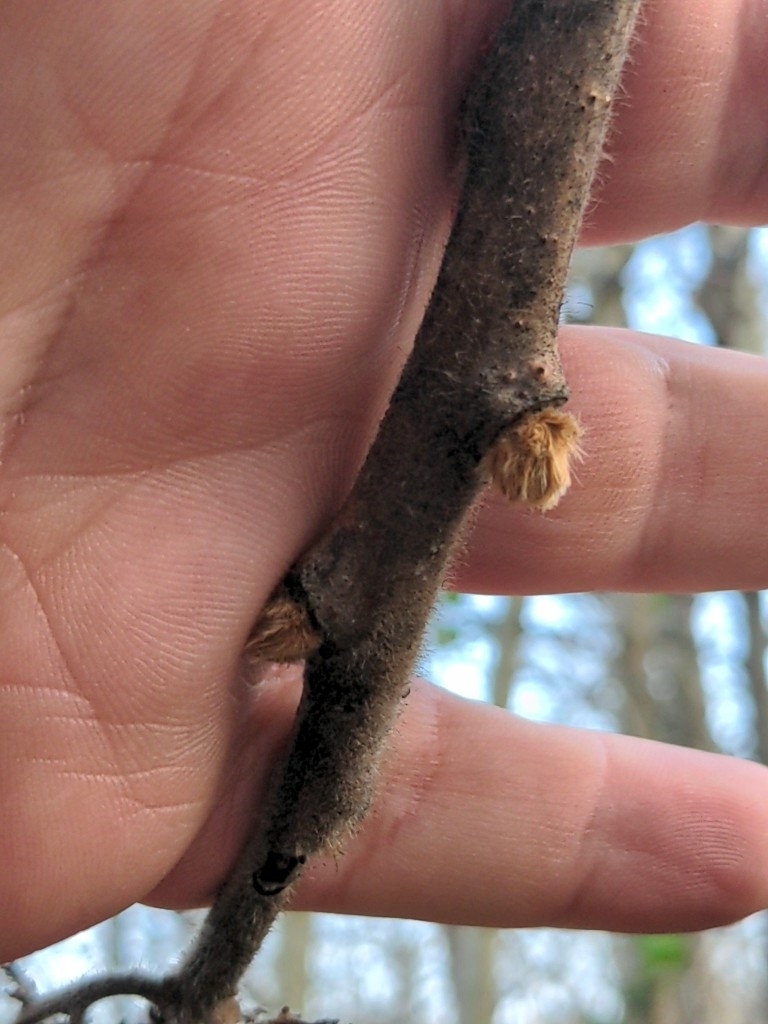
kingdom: Plantae
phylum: Tracheophyta
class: Magnoliopsida
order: Sapindales
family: Anacardiaceae
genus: Rhus
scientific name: Rhus typhina
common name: Staghorn sumac
